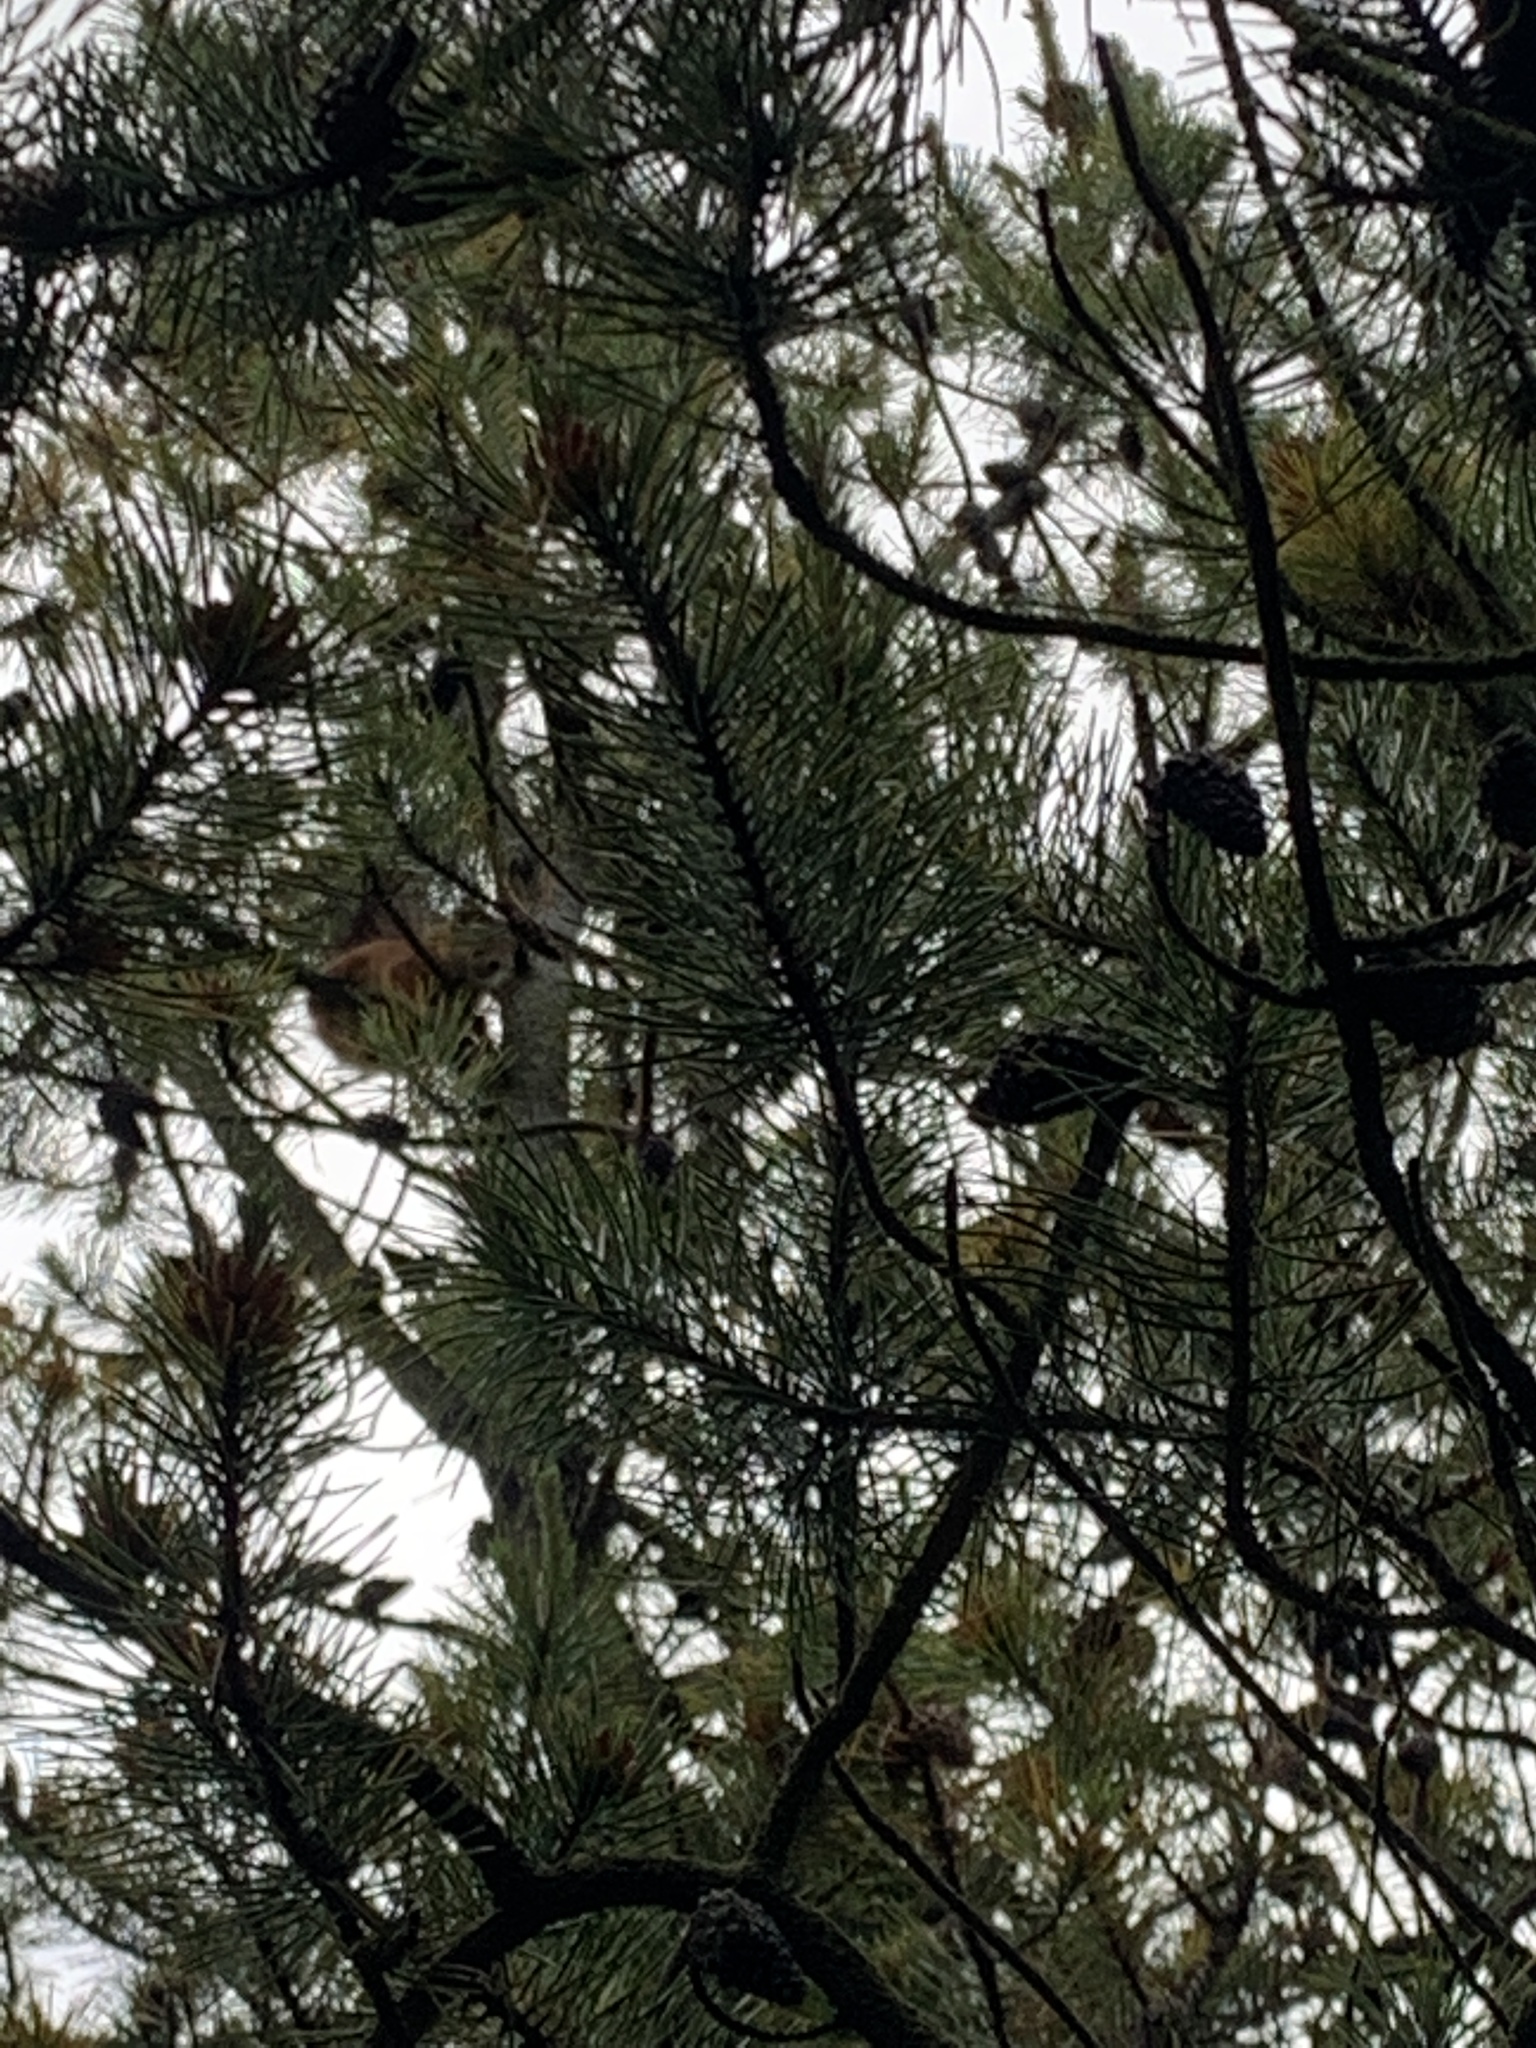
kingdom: Animalia
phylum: Chordata
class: Mammalia
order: Rodentia
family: Sciuridae
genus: Sciurus
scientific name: Sciurus vulgaris
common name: Eurasian red squirrel
